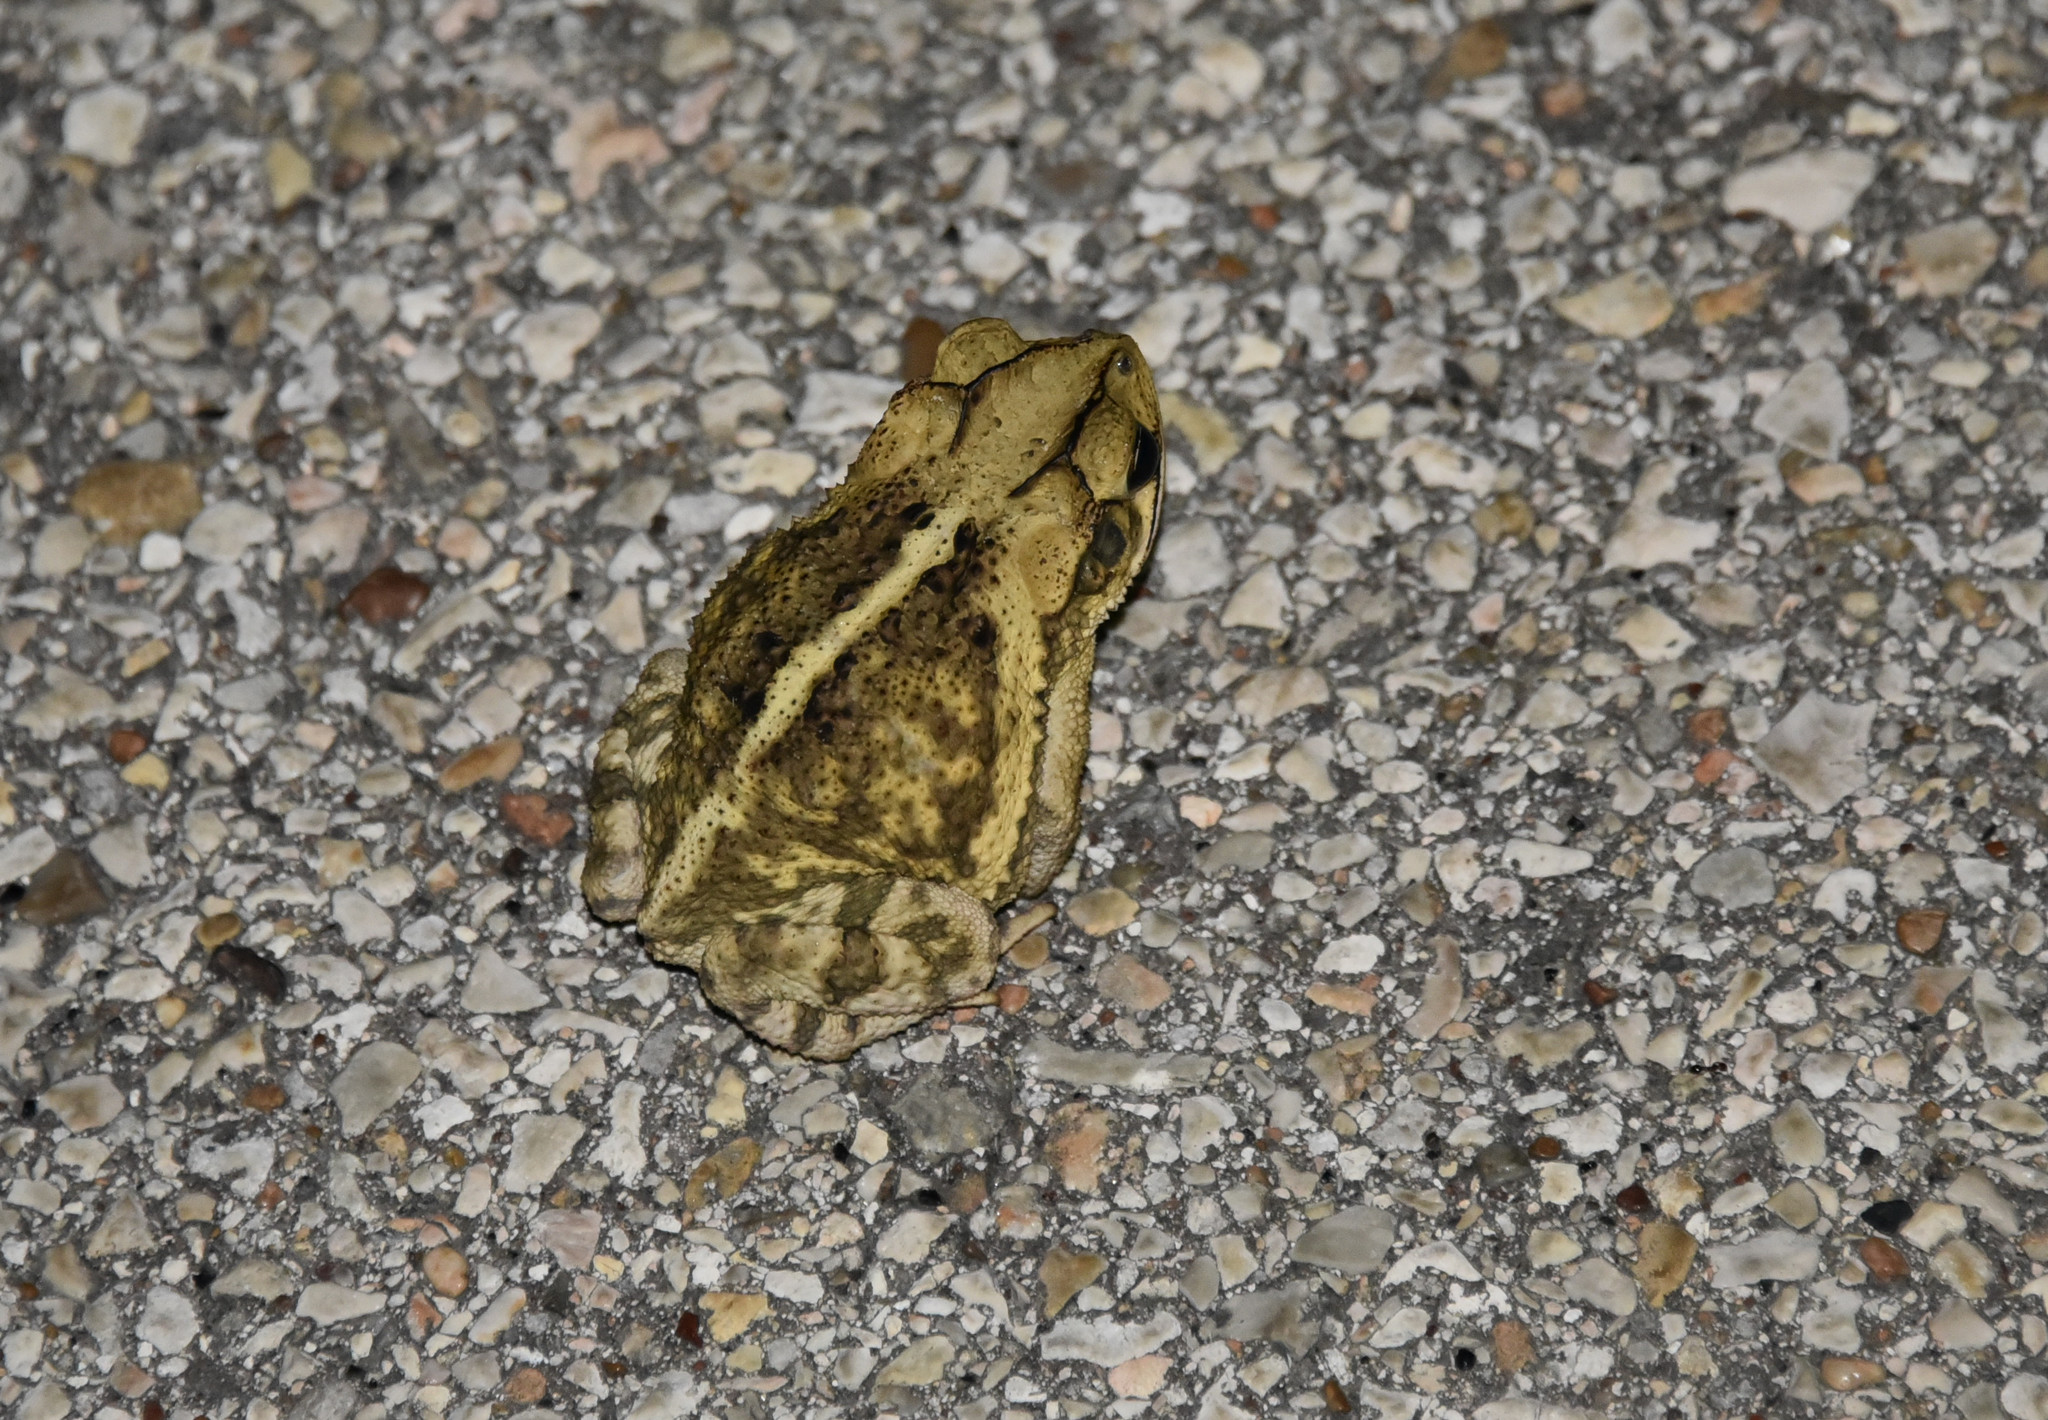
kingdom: Animalia
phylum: Chordata
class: Amphibia
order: Anura
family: Bufonidae
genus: Incilius
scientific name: Incilius nebulifer
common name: Gulf coast toad
